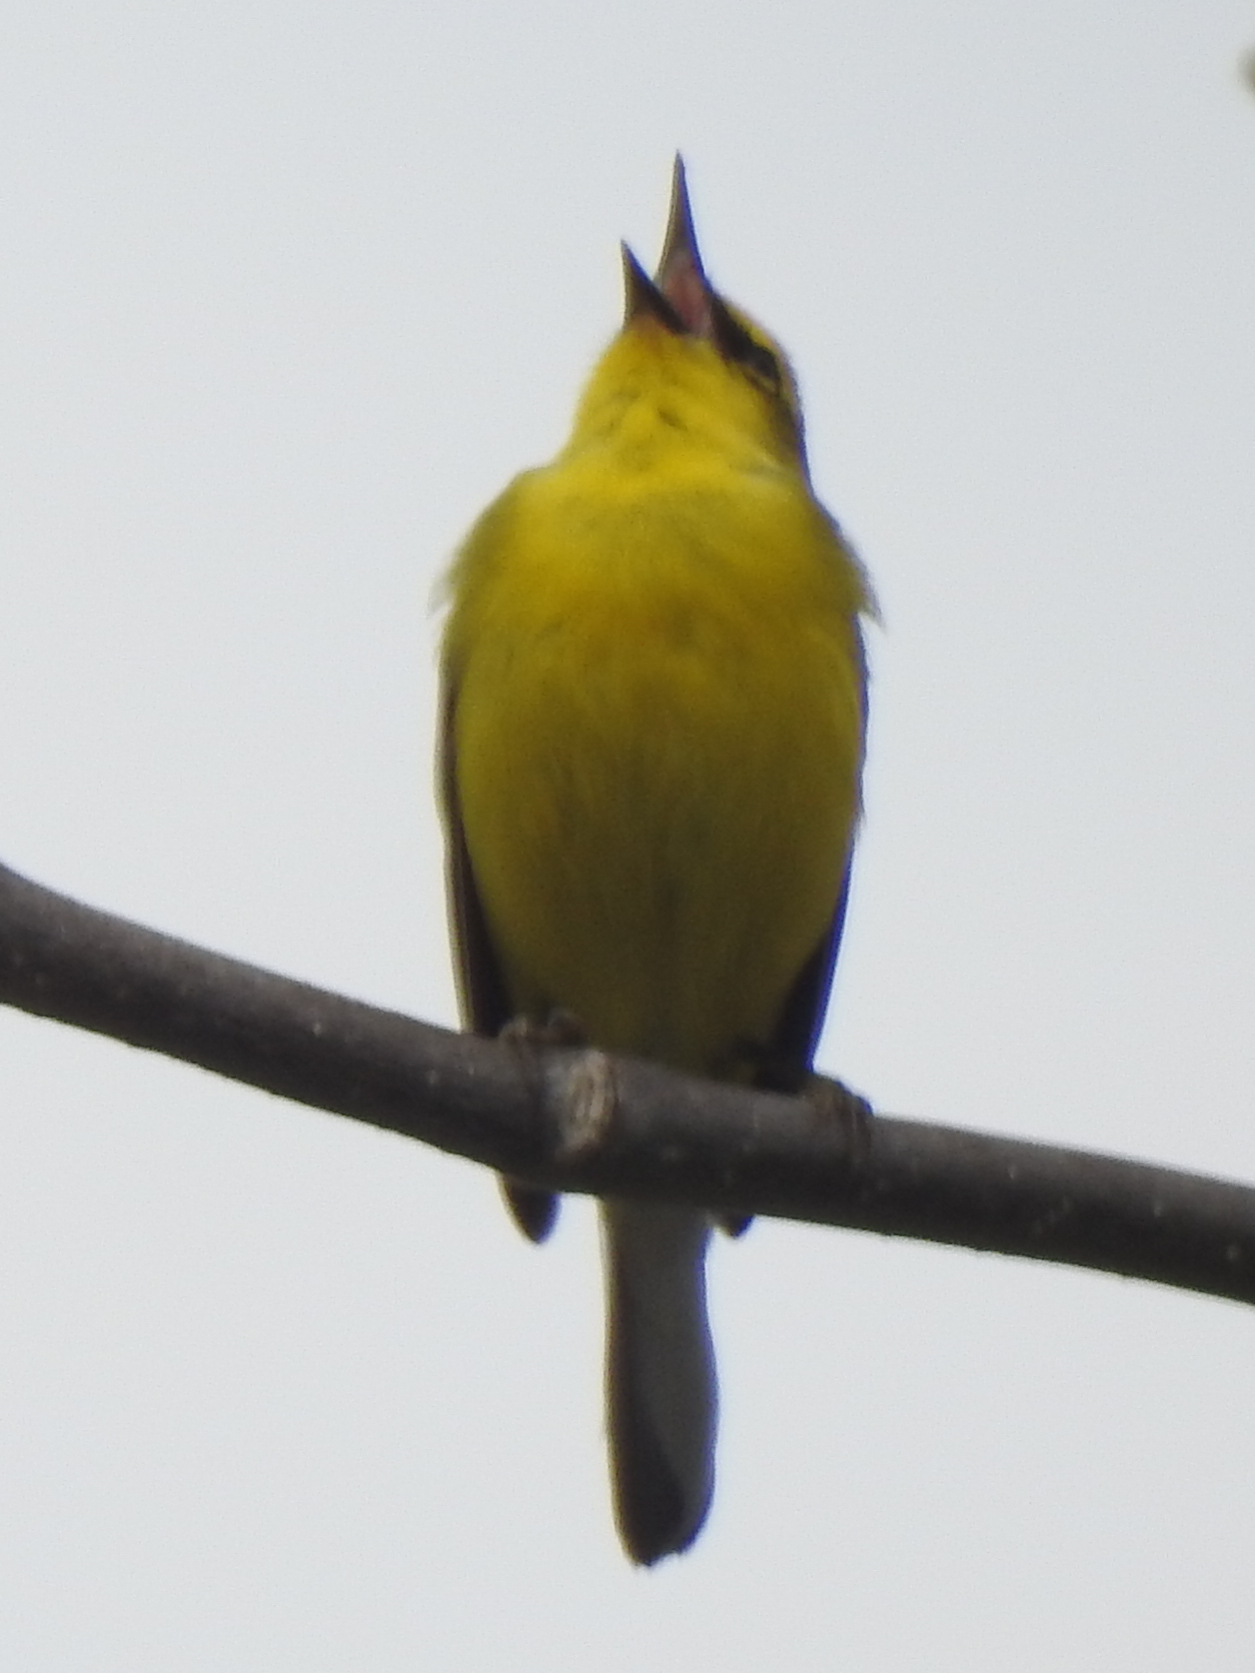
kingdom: Animalia
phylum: Chordata
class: Aves
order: Passeriformes
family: Parulidae
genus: Vermivora
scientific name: Vermivora cyanoptera
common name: Blue-winged warbler
